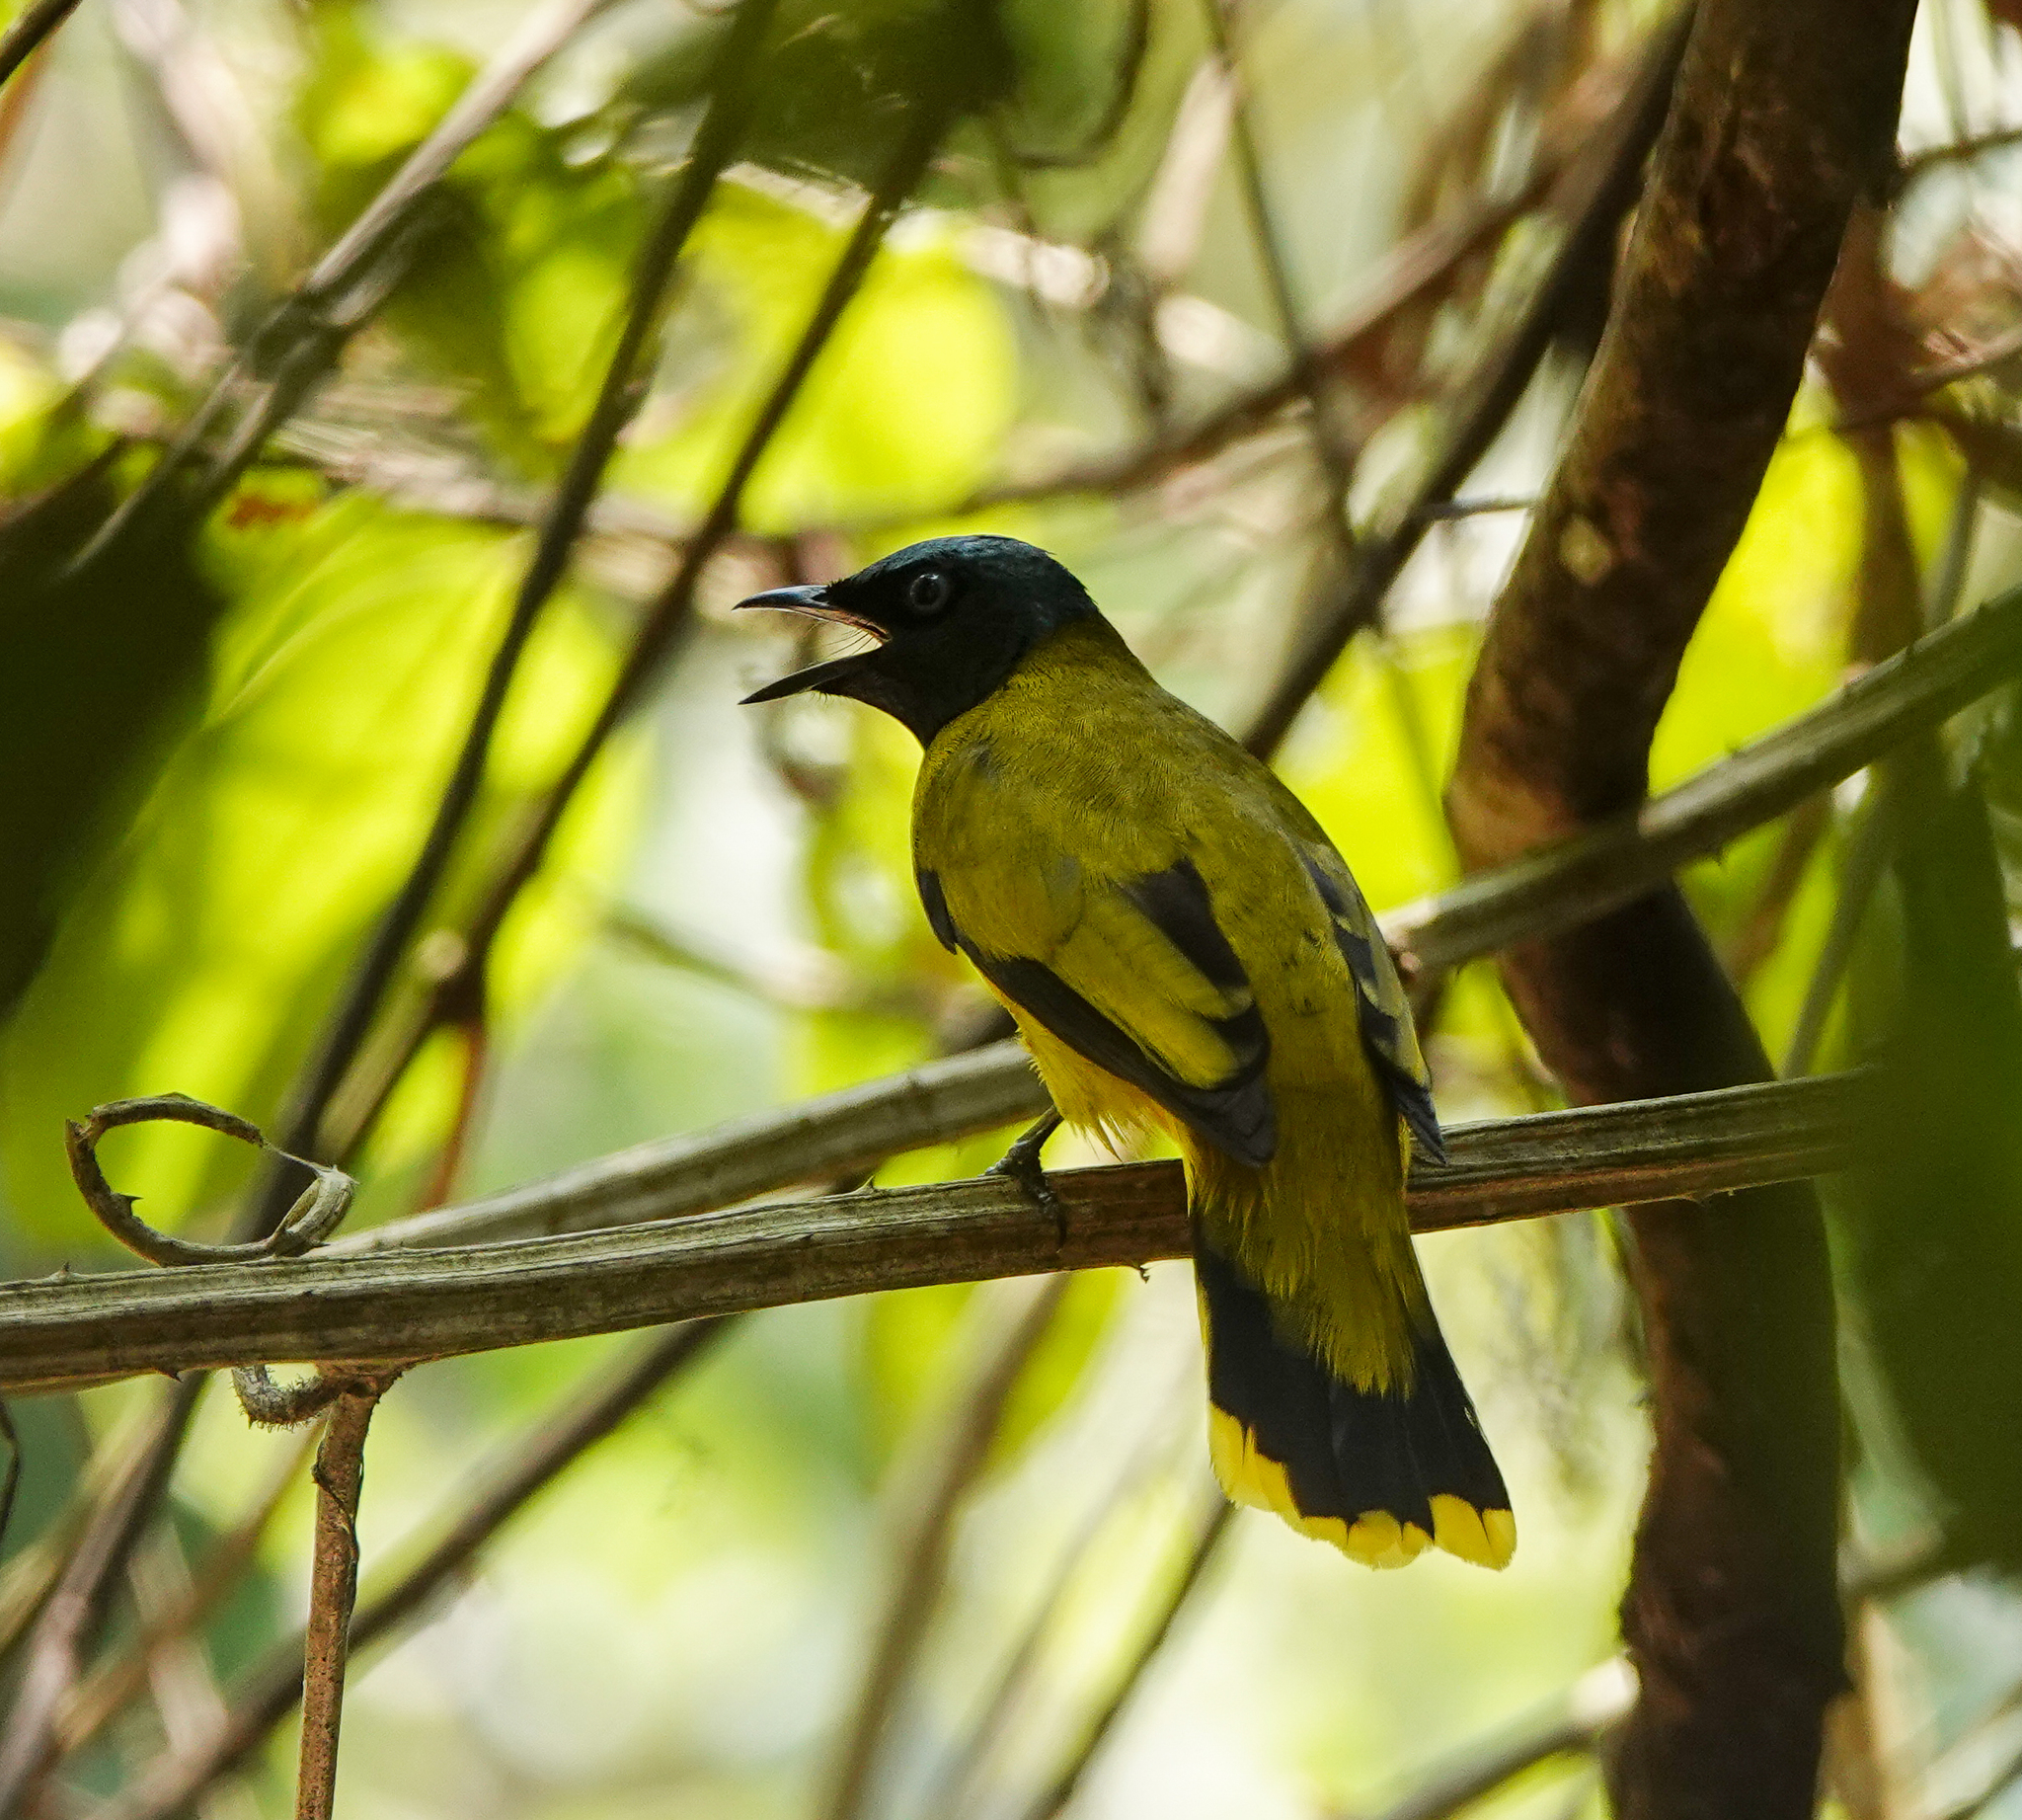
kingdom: Animalia
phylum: Chordata
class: Aves
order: Passeriformes
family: Pycnonotidae
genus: Microtarsus
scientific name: Microtarsus
